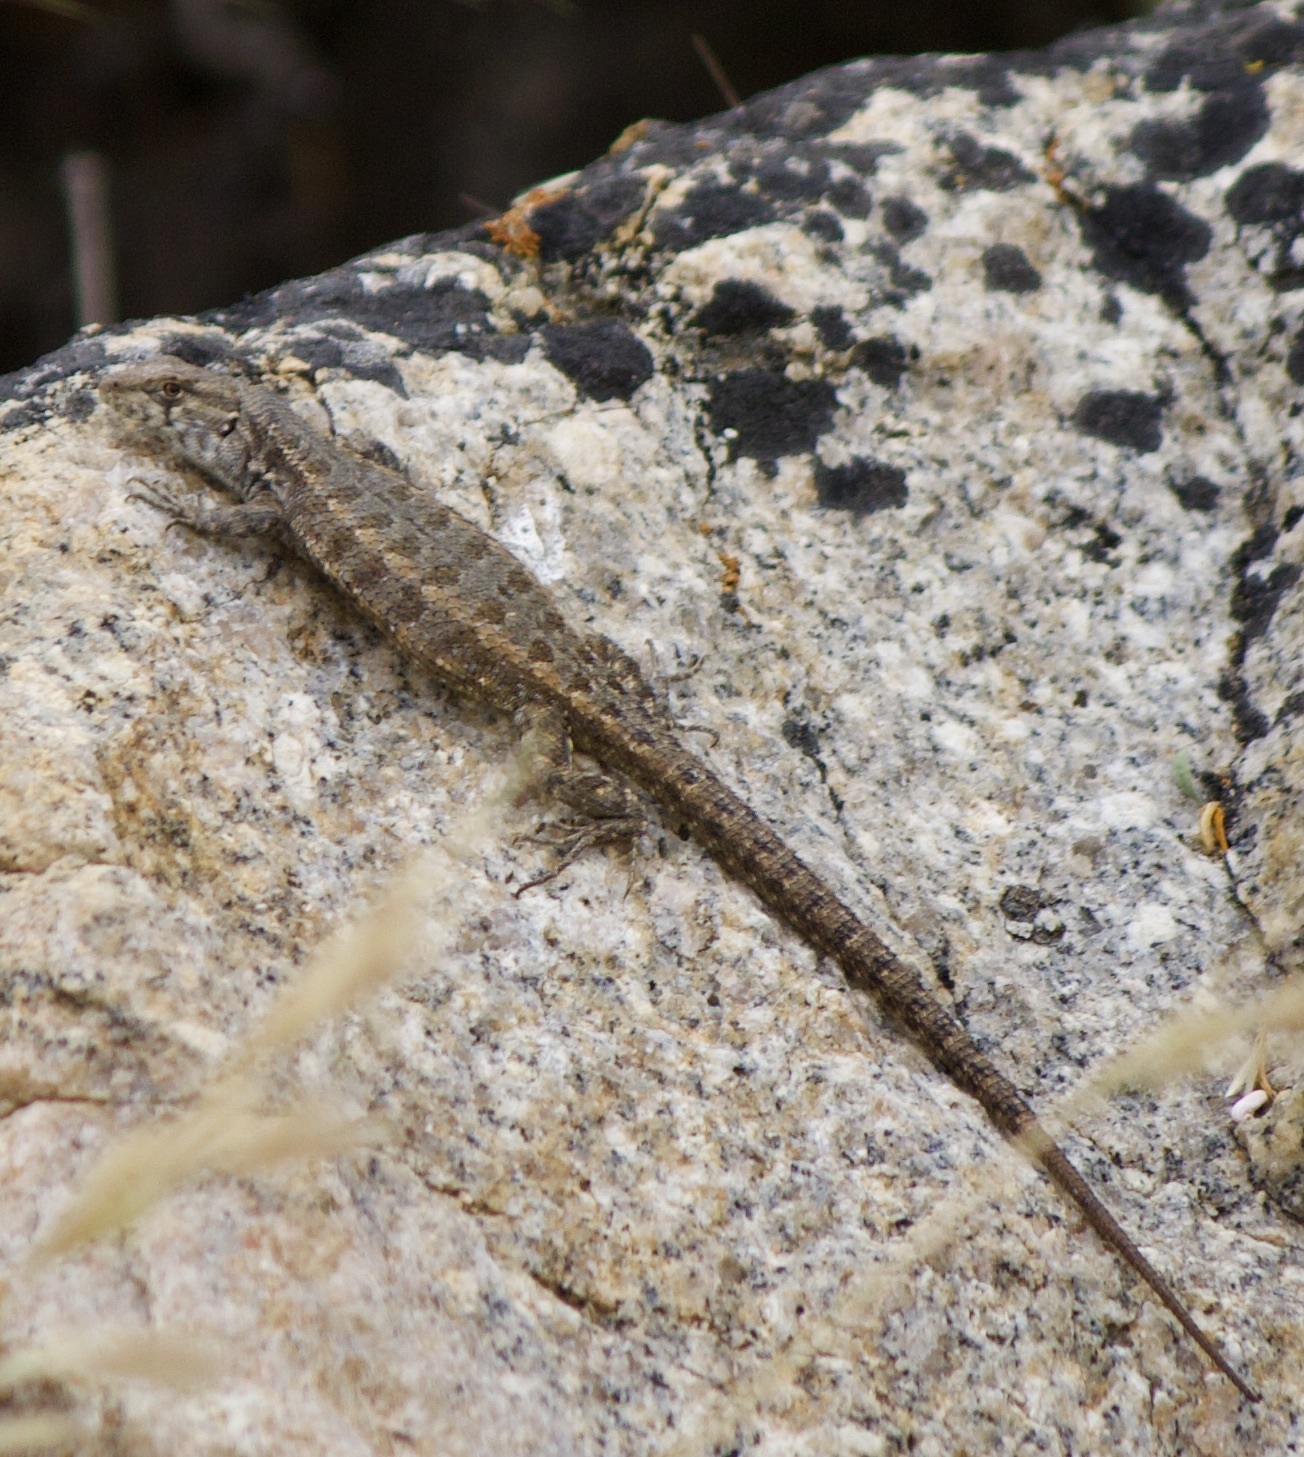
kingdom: Animalia
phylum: Chordata
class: Squamata
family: Liolaemidae
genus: Liolaemus
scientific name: Liolaemus platei
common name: Braided tree iguana
